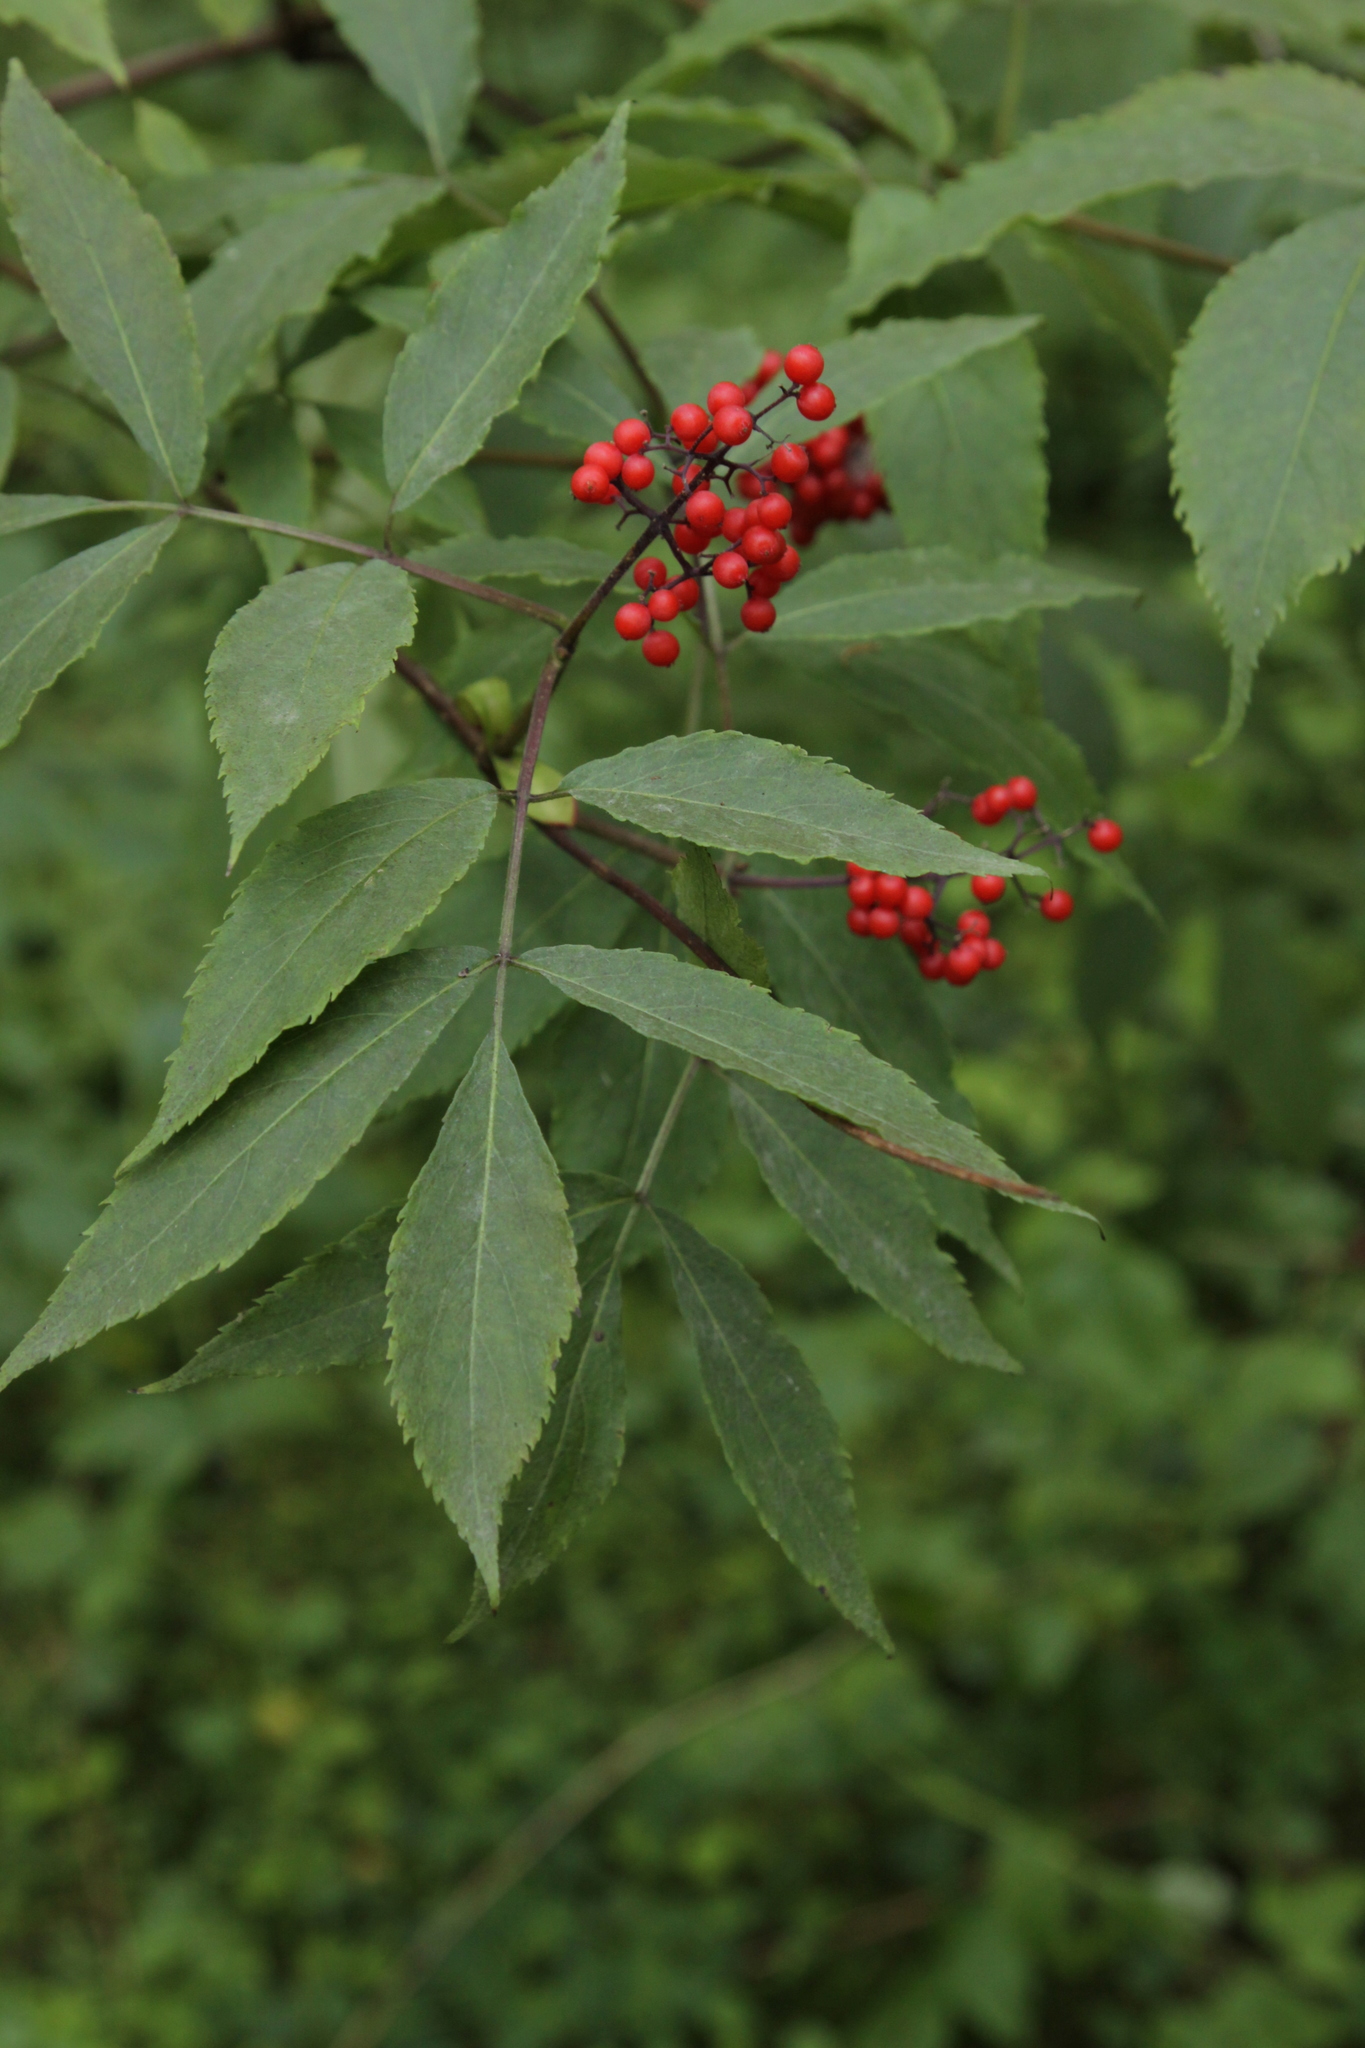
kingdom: Plantae
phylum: Tracheophyta
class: Magnoliopsida
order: Dipsacales
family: Viburnaceae
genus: Sambucus
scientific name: Sambucus racemosa
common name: Red-berried elder
